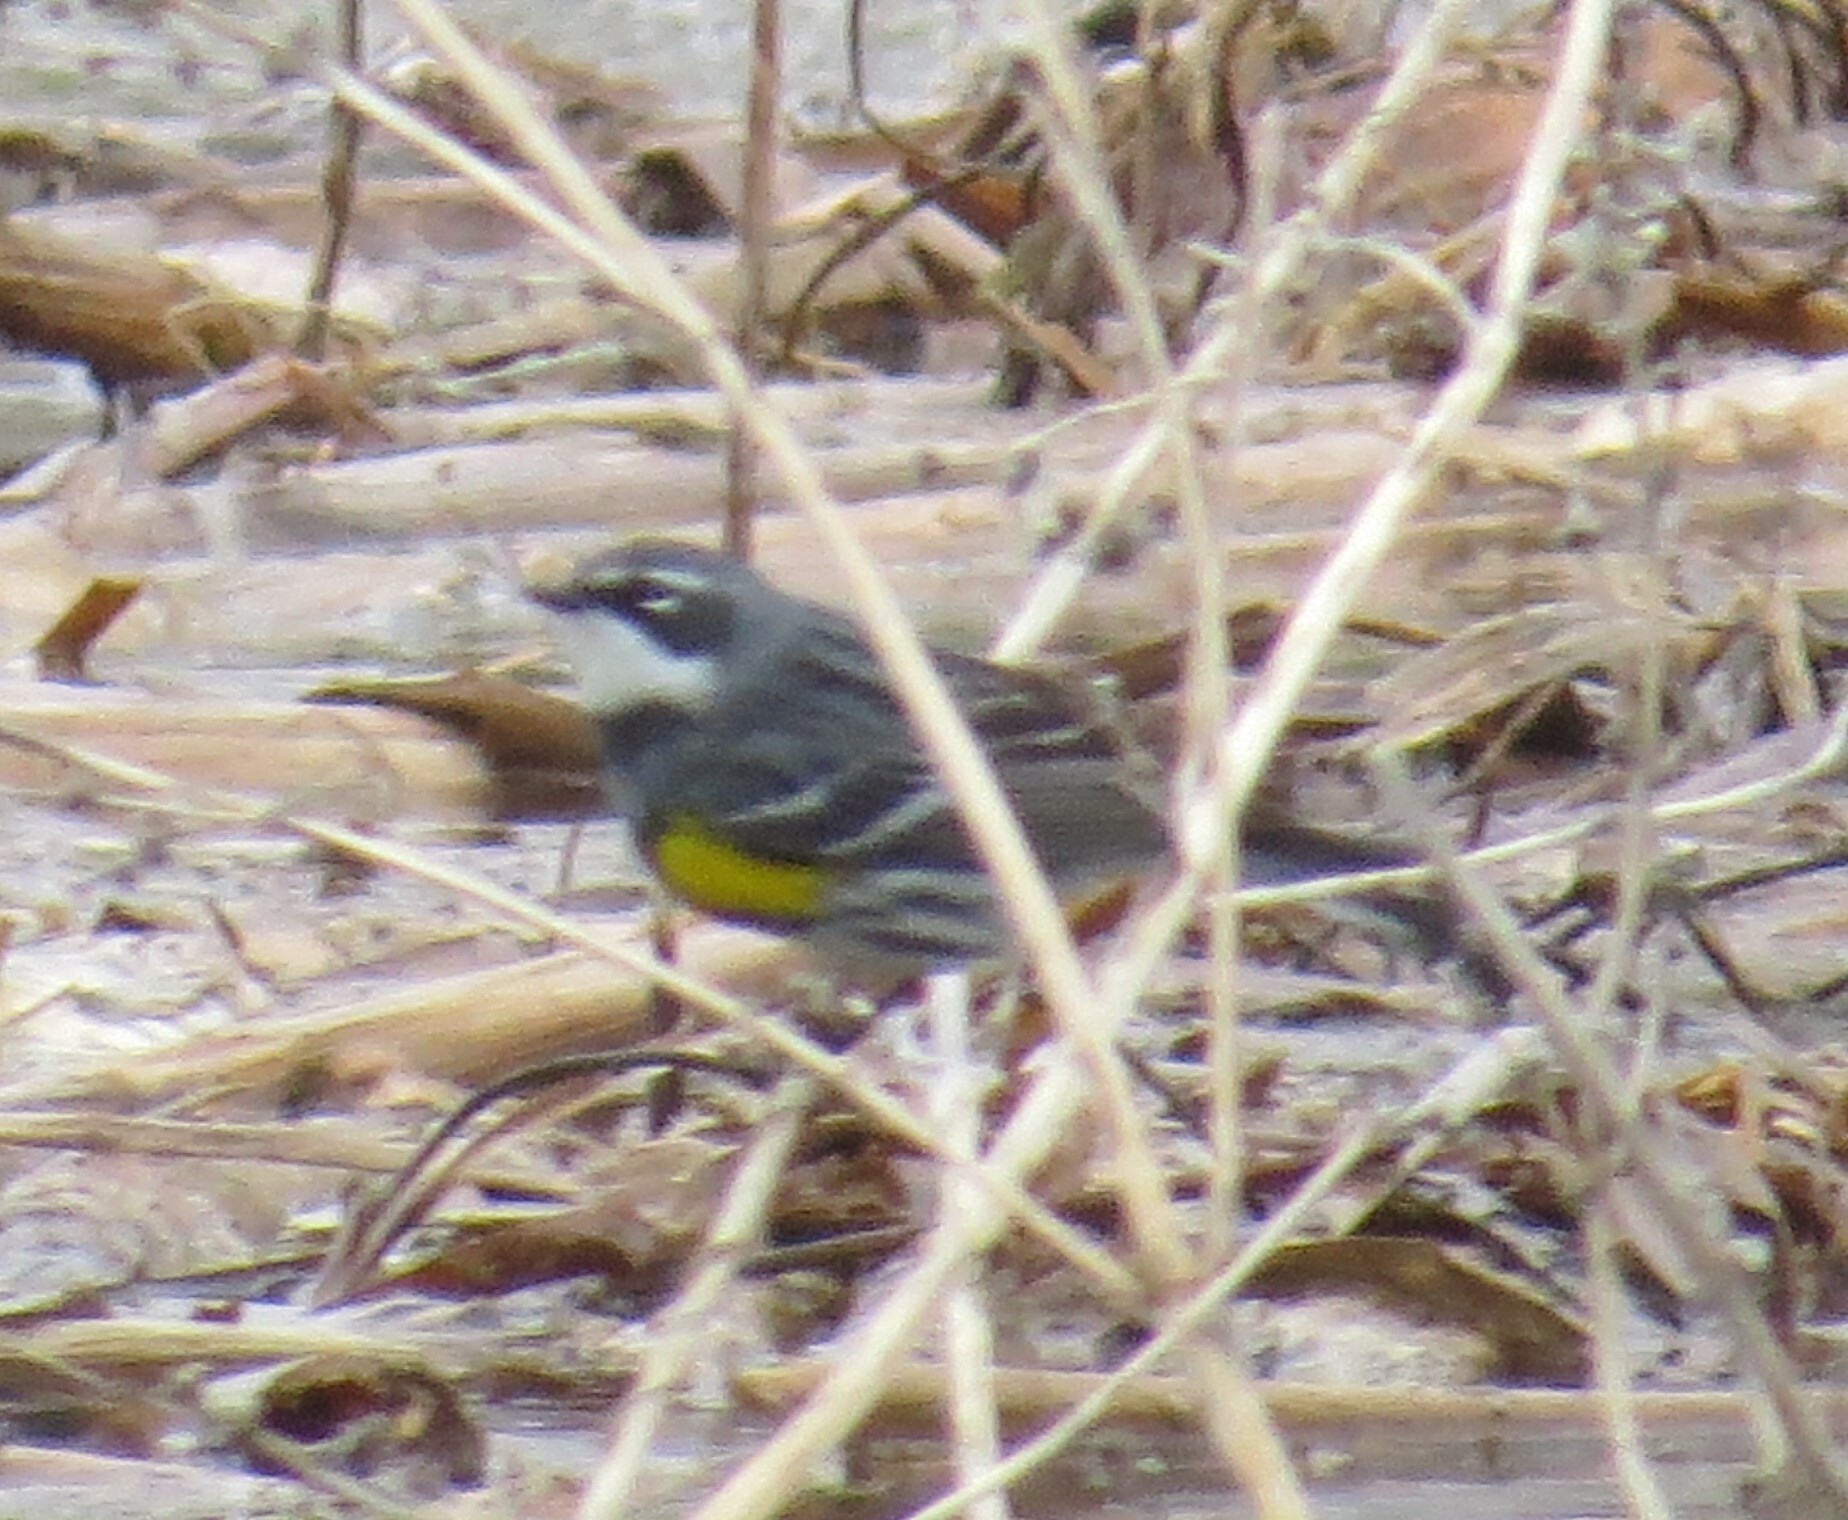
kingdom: Animalia
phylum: Chordata
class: Aves
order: Passeriformes
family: Parulidae
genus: Setophaga
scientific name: Setophaga coronata
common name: Myrtle warbler
